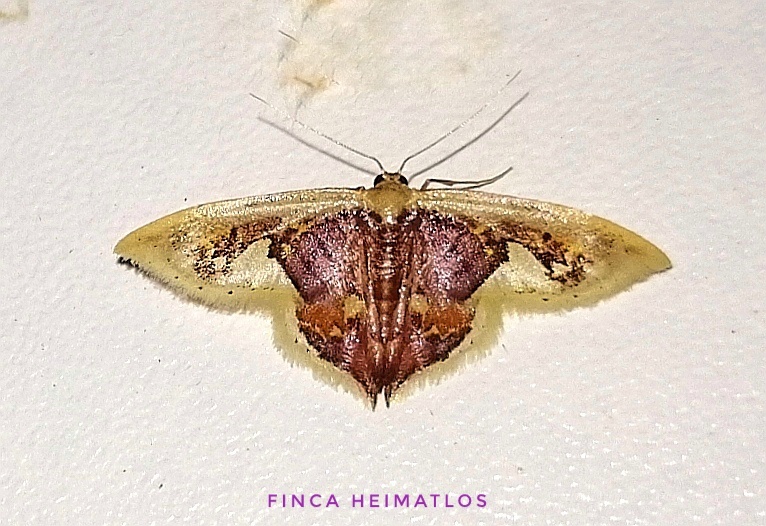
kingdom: Animalia
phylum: Arthropoda
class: Insecta
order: Lepidoptera
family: Geometridae
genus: Idaea
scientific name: Idaea flavicosta
